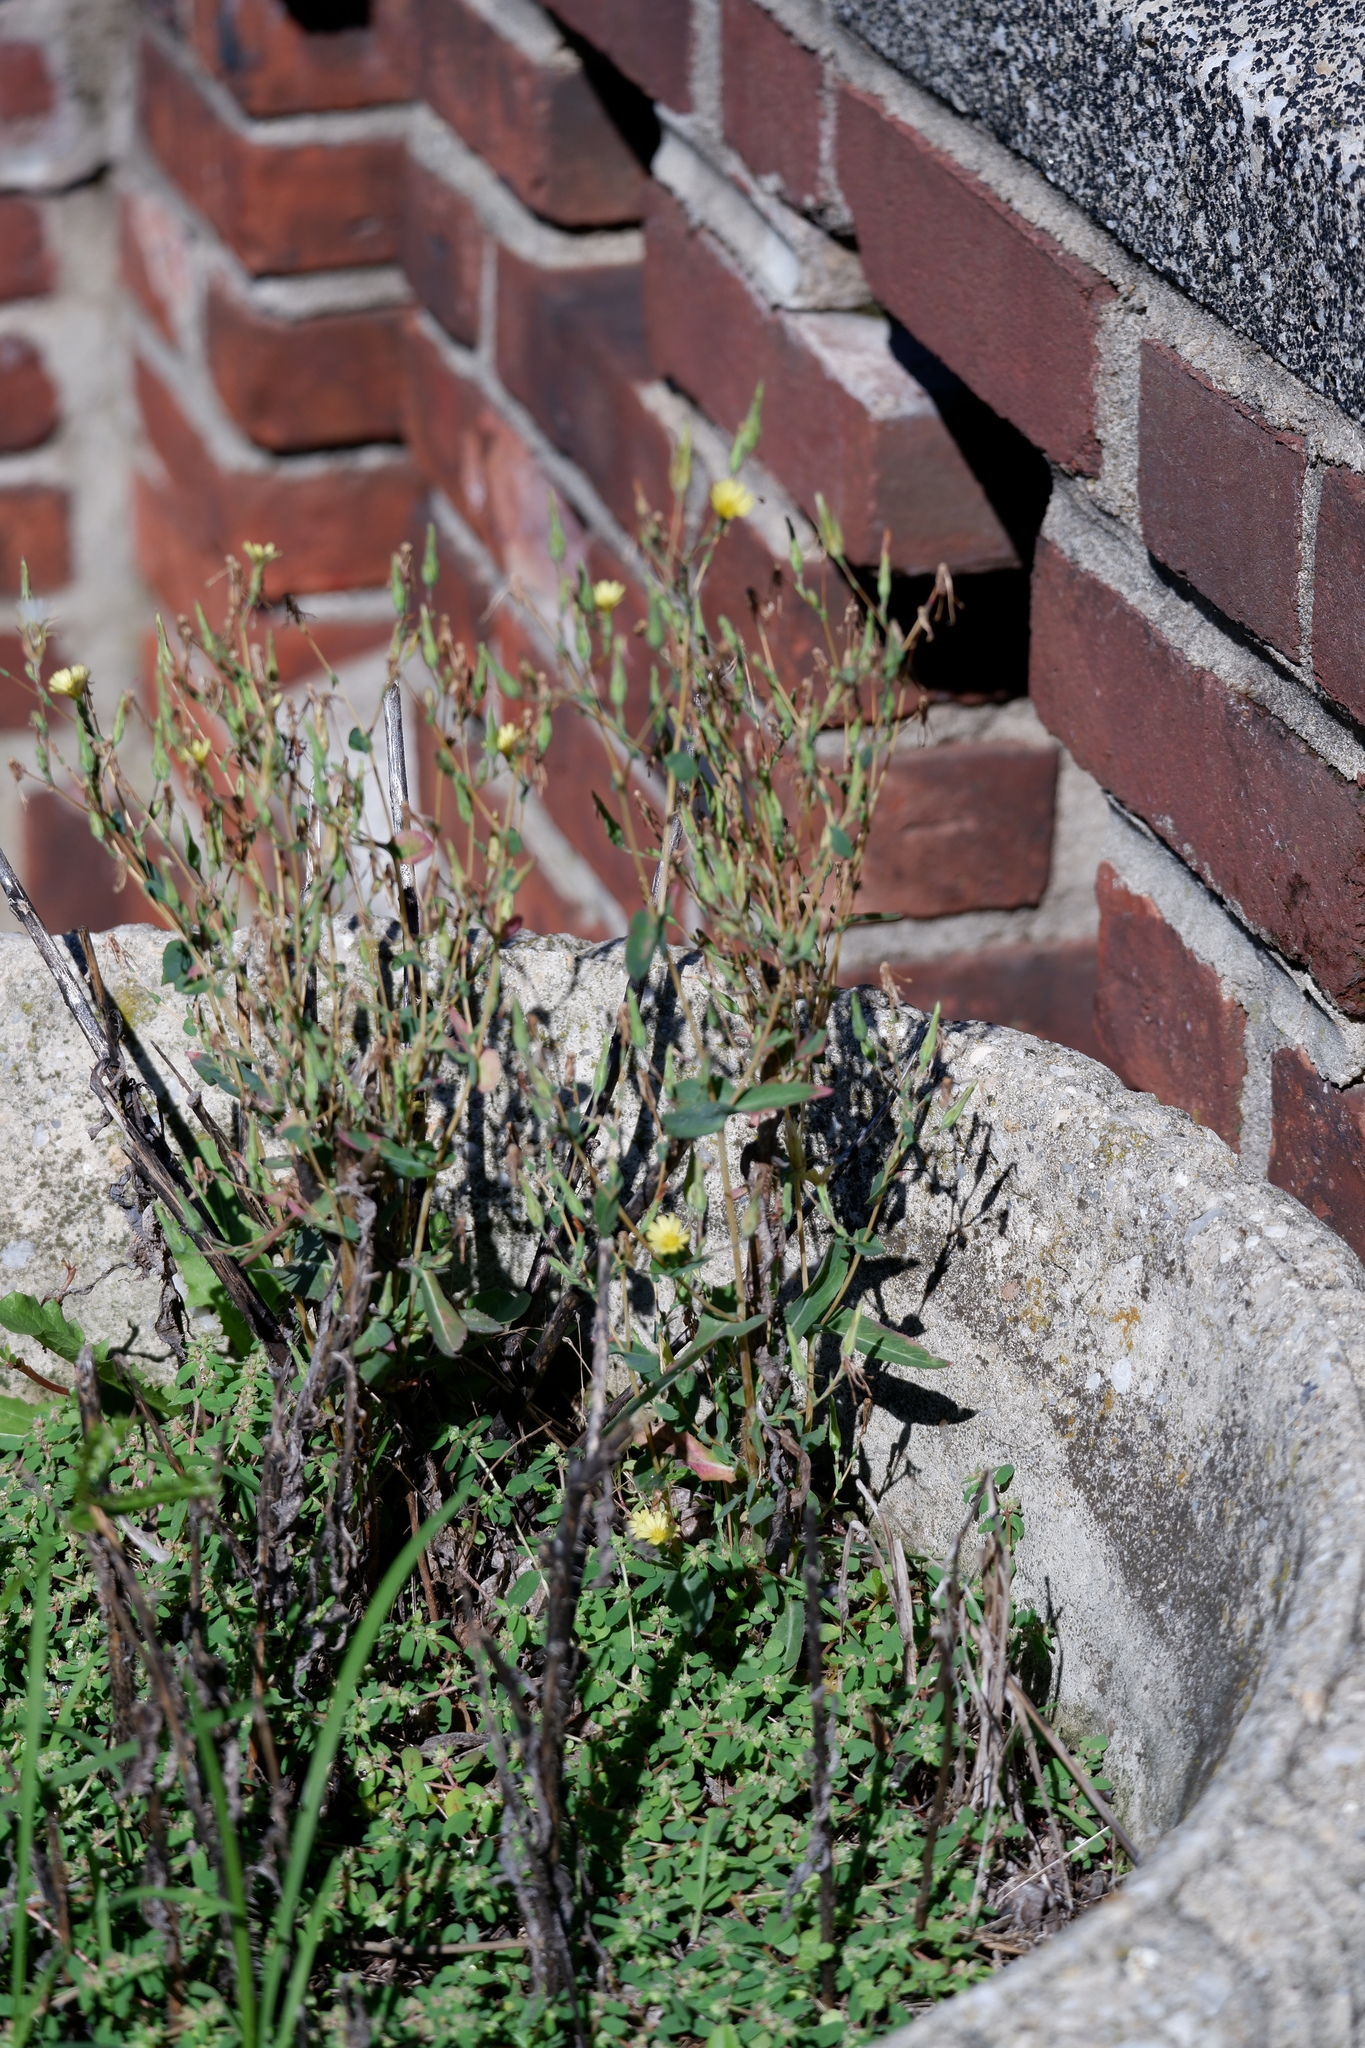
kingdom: Plantae
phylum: Tracheophyta
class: Magnoliopsida
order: Asterales
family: Asteraceae
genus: Lactuca
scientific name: Lactuca serriola
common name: Prickly lettuce
